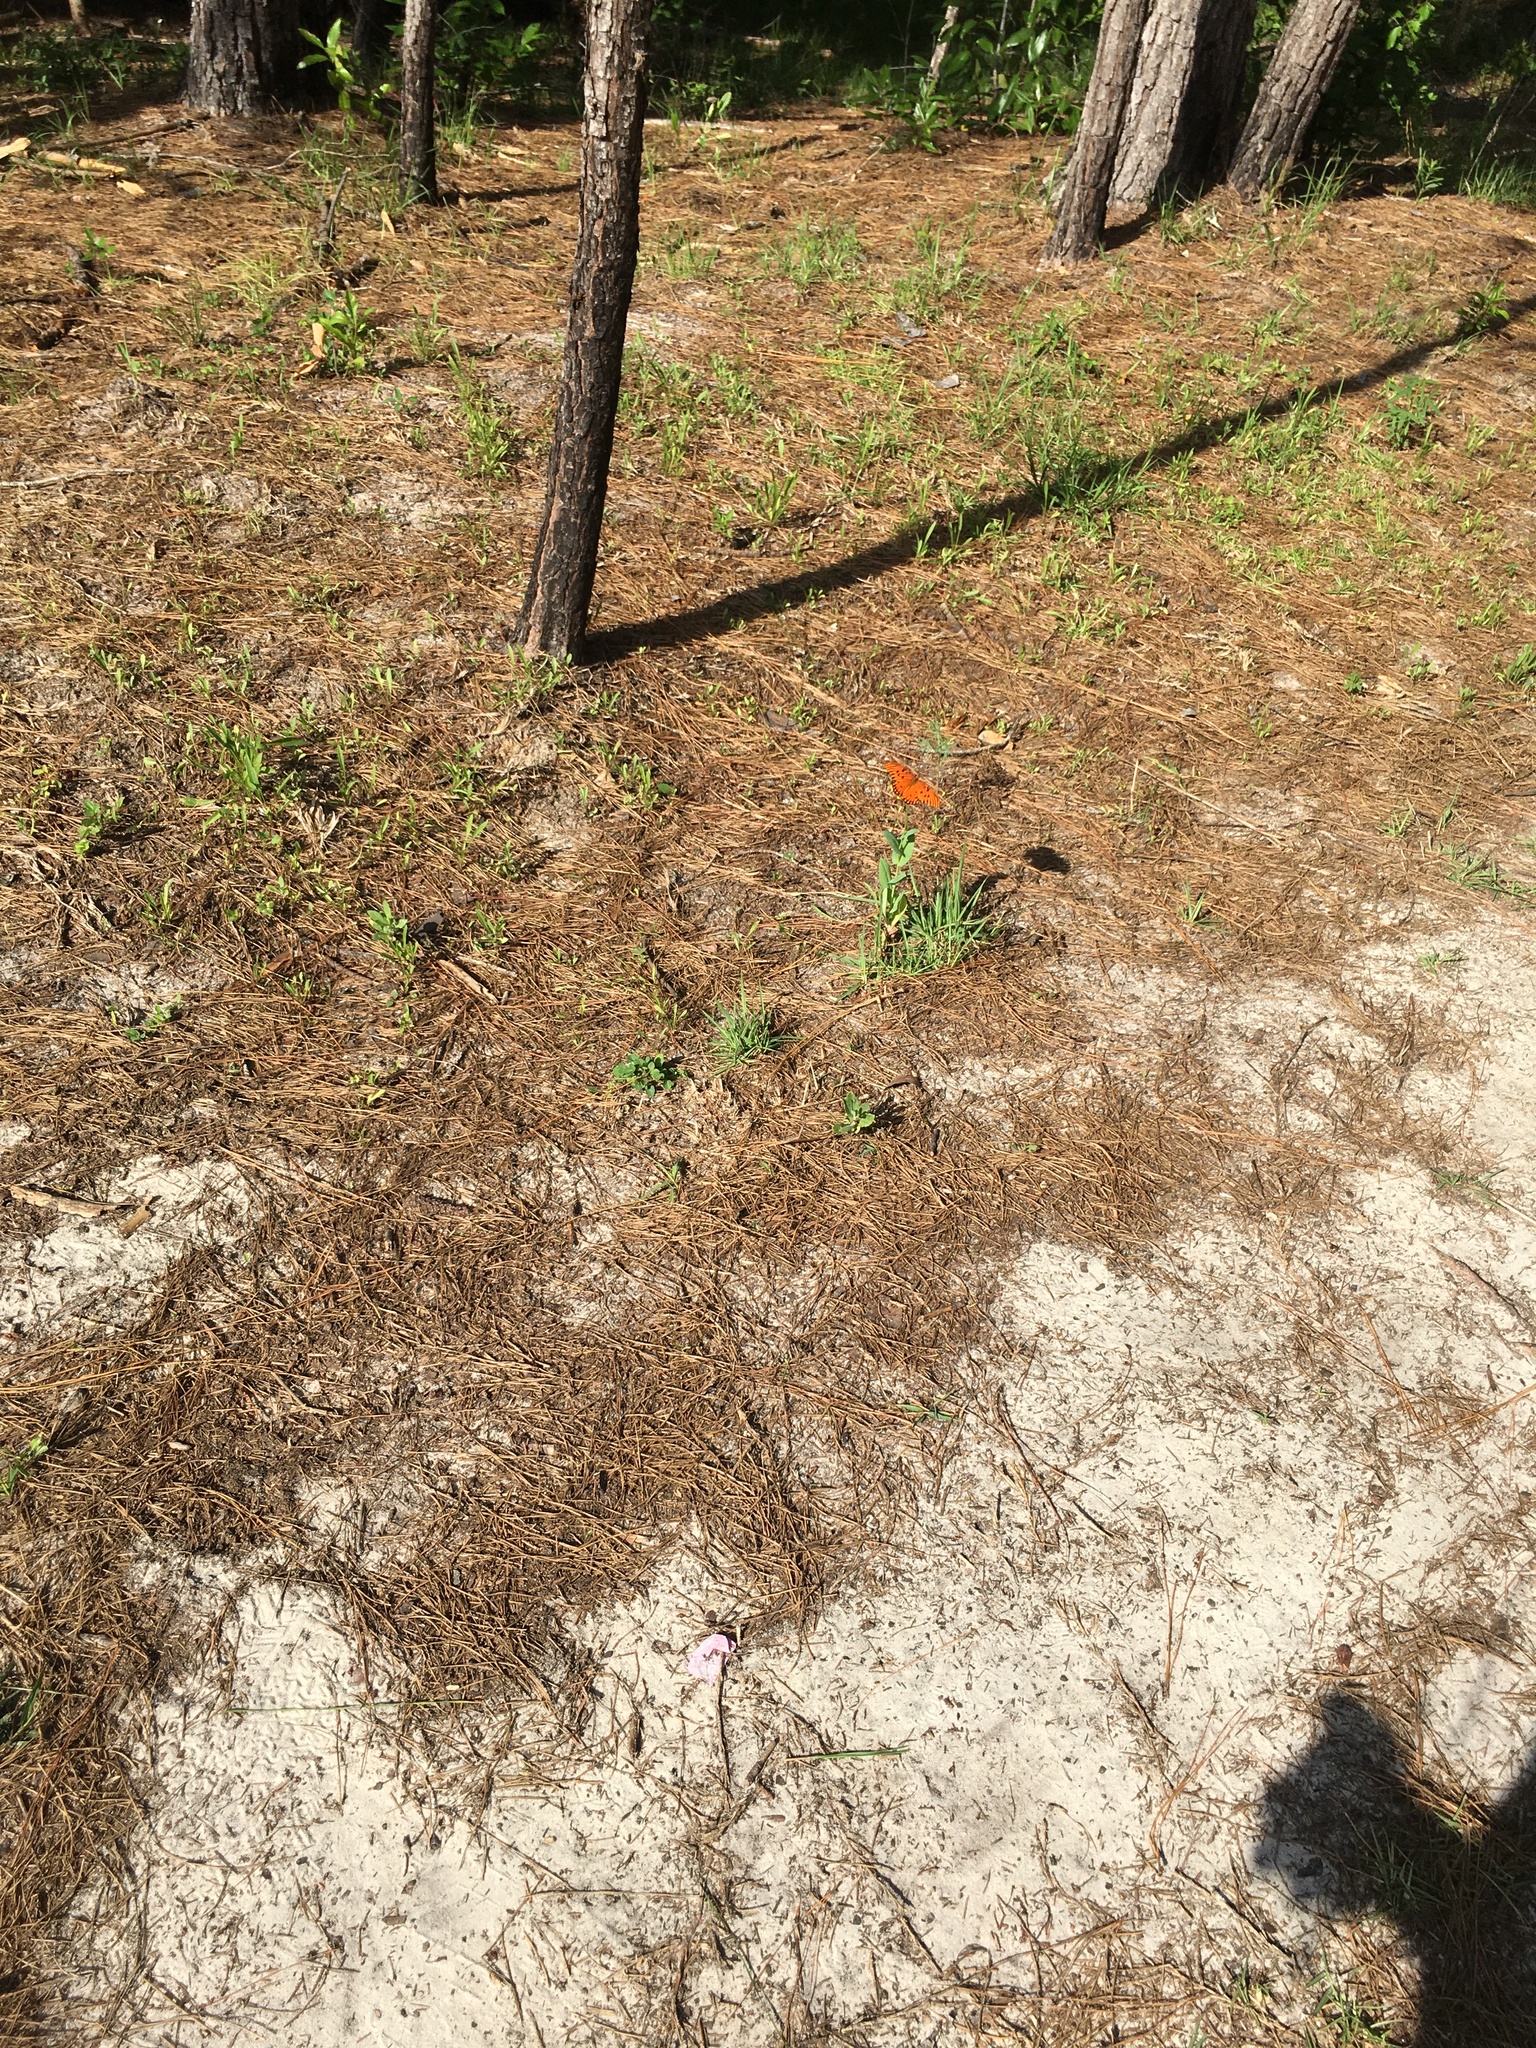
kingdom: Animalia
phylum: Arthropoda
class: Insecta
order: Lepidoptera
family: Nymphalidae
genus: Dione
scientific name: Dione vanillae
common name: Gulf fritillary
